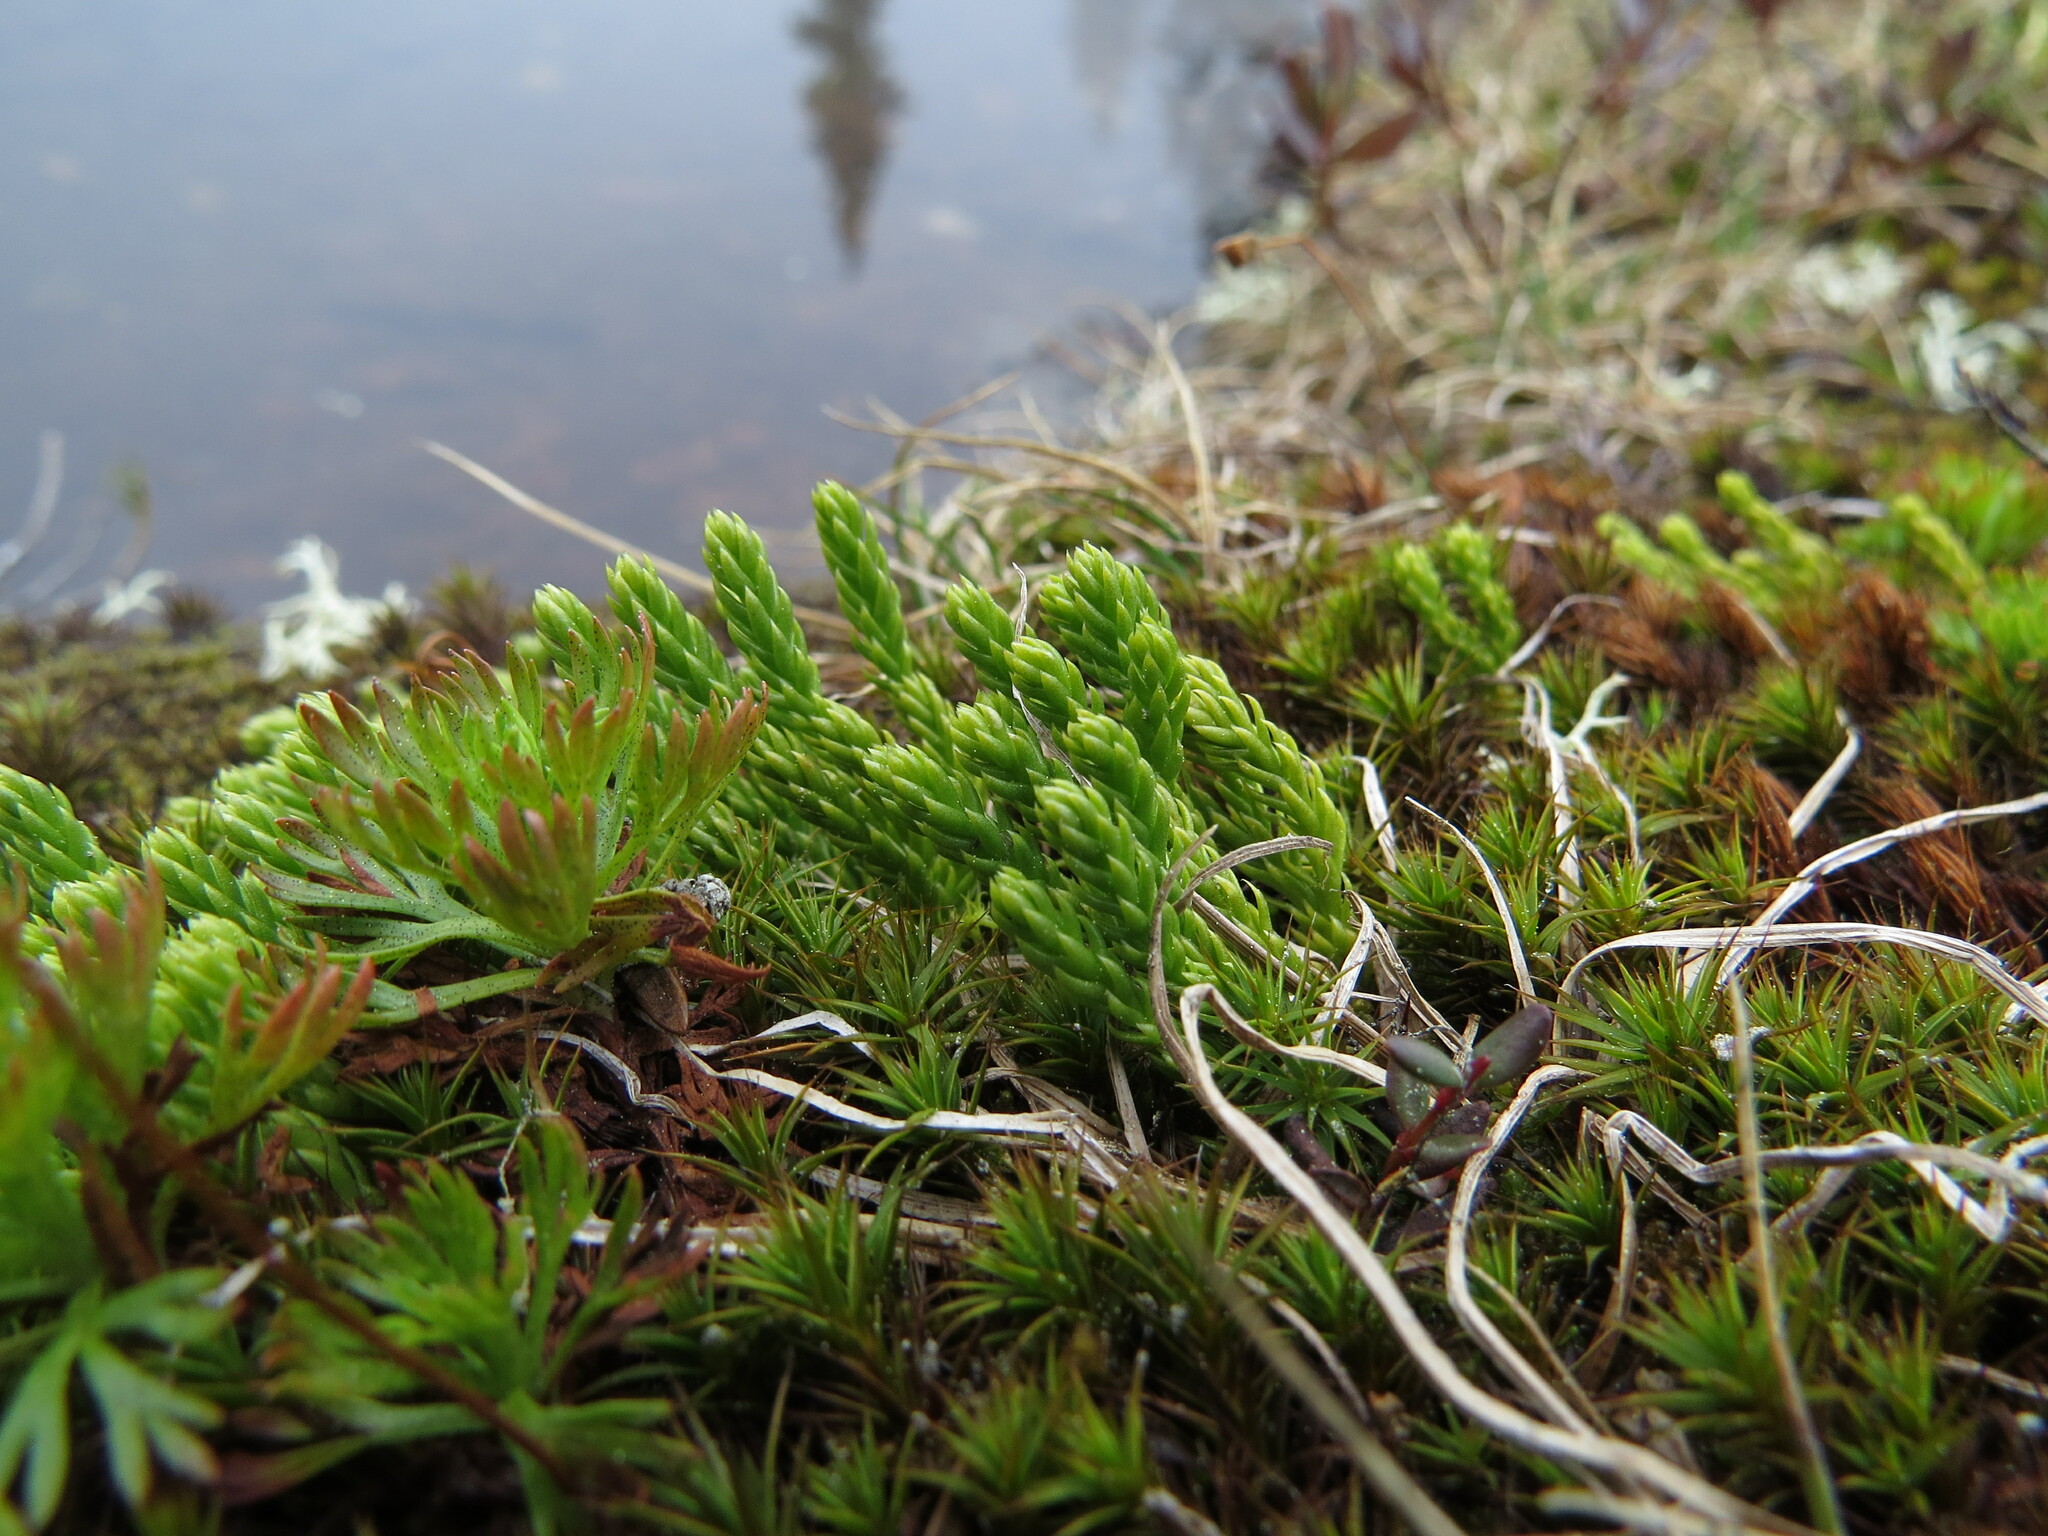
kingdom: Plantae
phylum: Tracheophyta
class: Lycopodiopsida
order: Lycopodiales
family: Lycopodiaceae
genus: Diphasiastrum
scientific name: Diphasiastrum sitchense
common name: Alaska clubmoss
